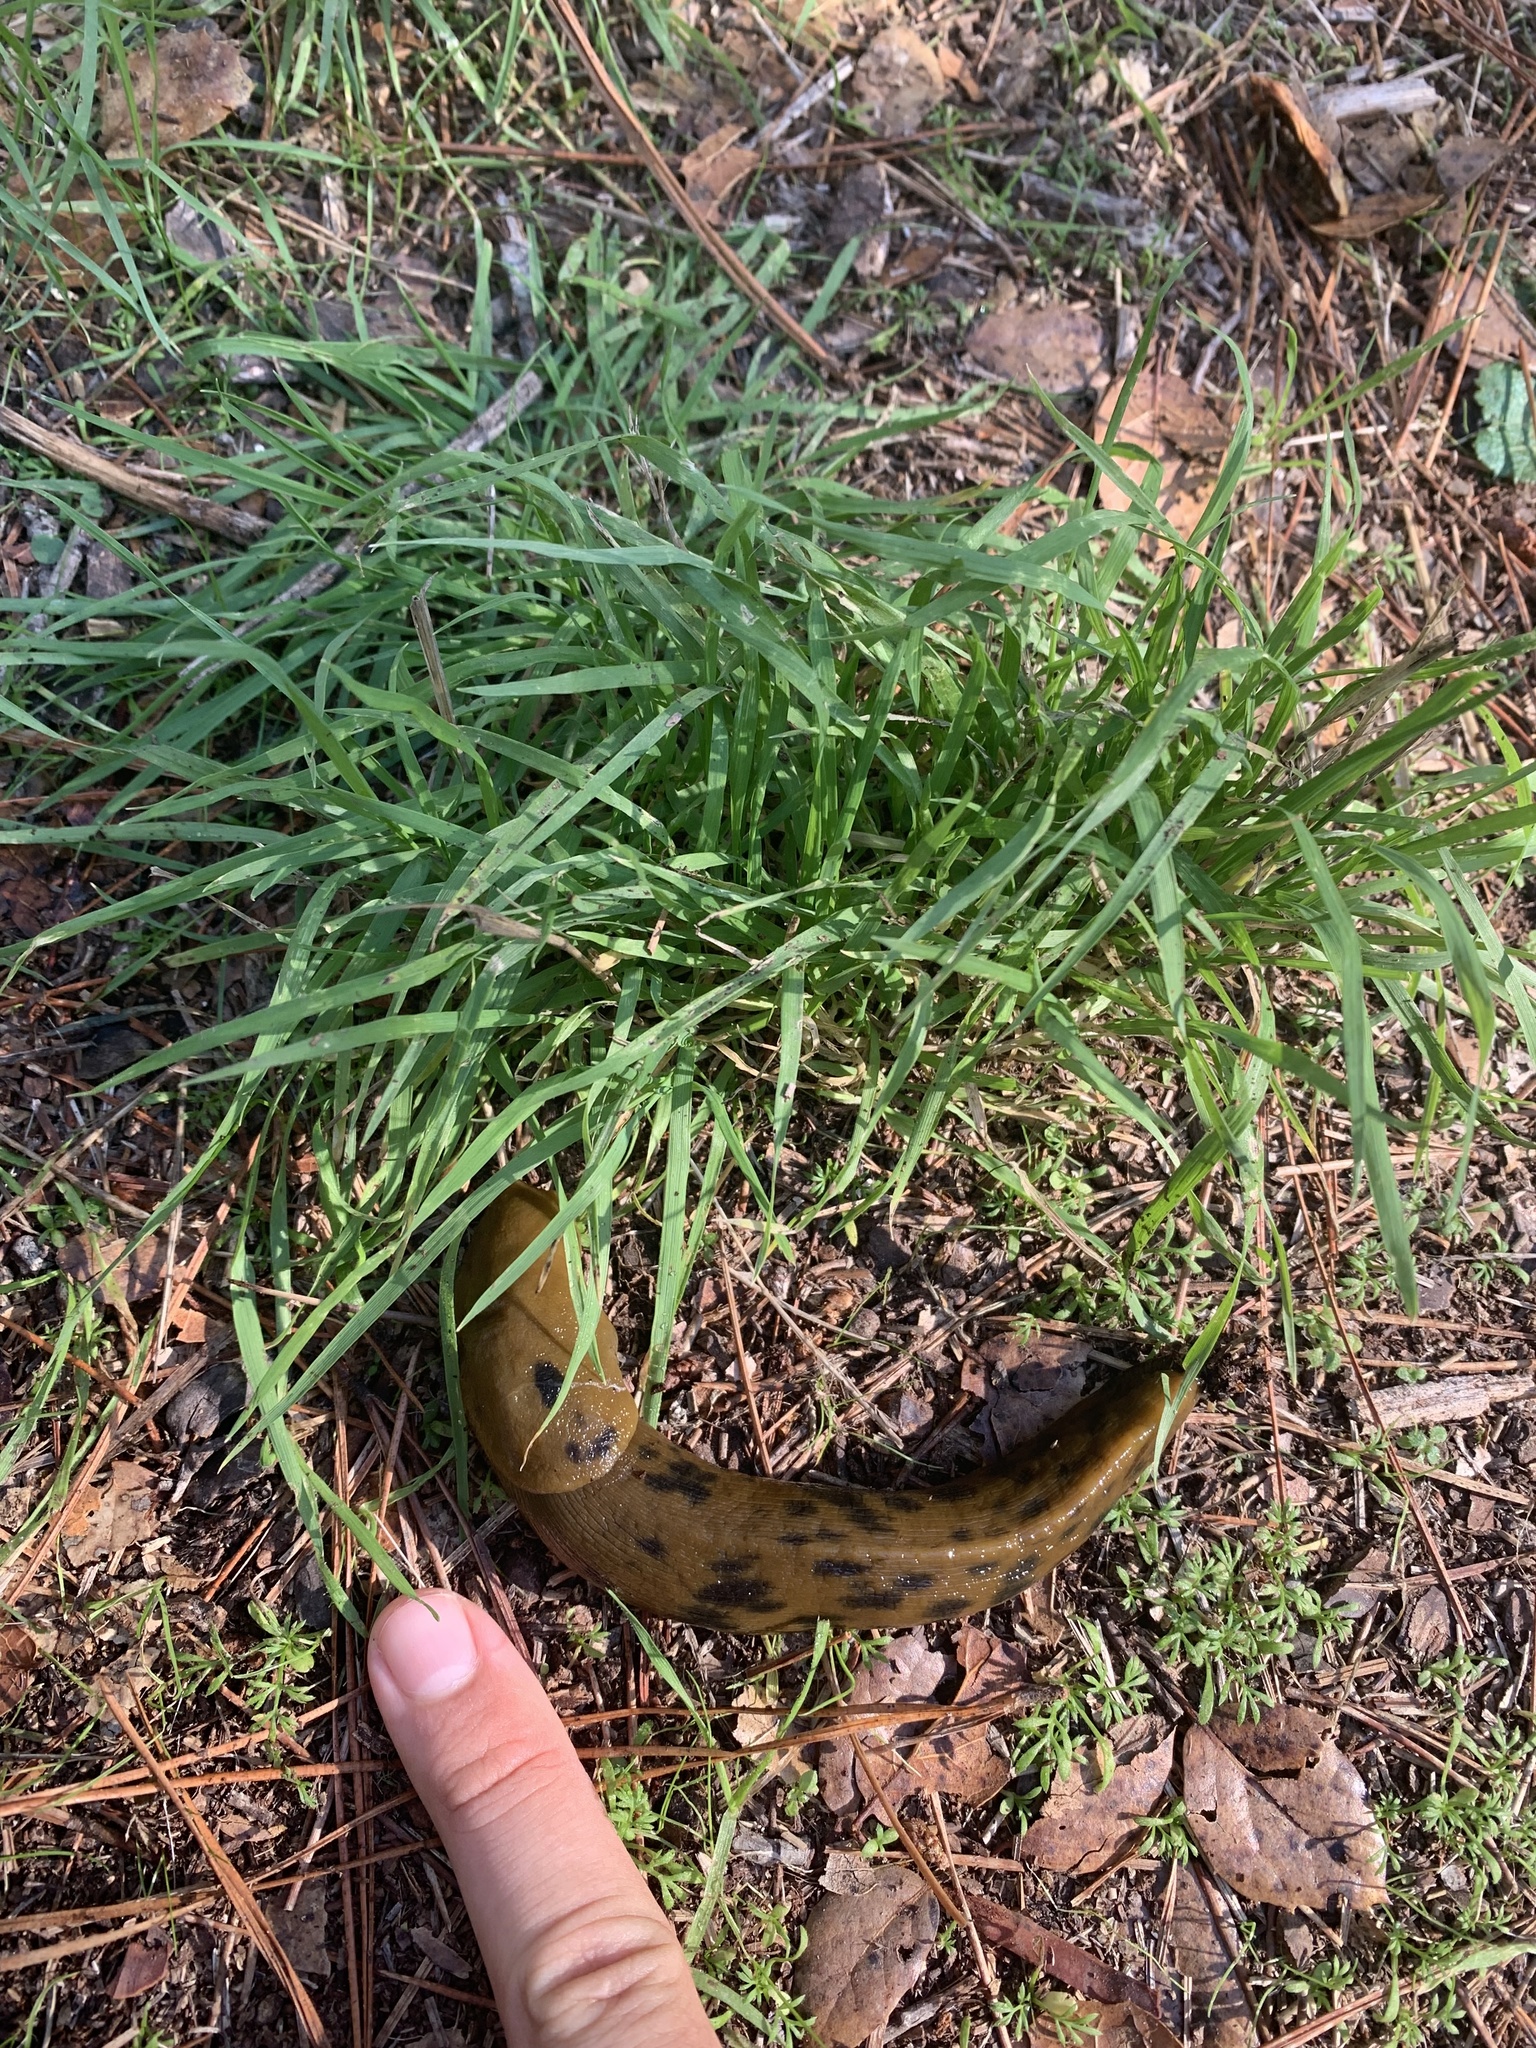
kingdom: Animalia
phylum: Mollusca
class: Gastropoda
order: Stylommatophora
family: Ariolimacidae
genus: Ariolimax
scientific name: Ariolimax buttoni
